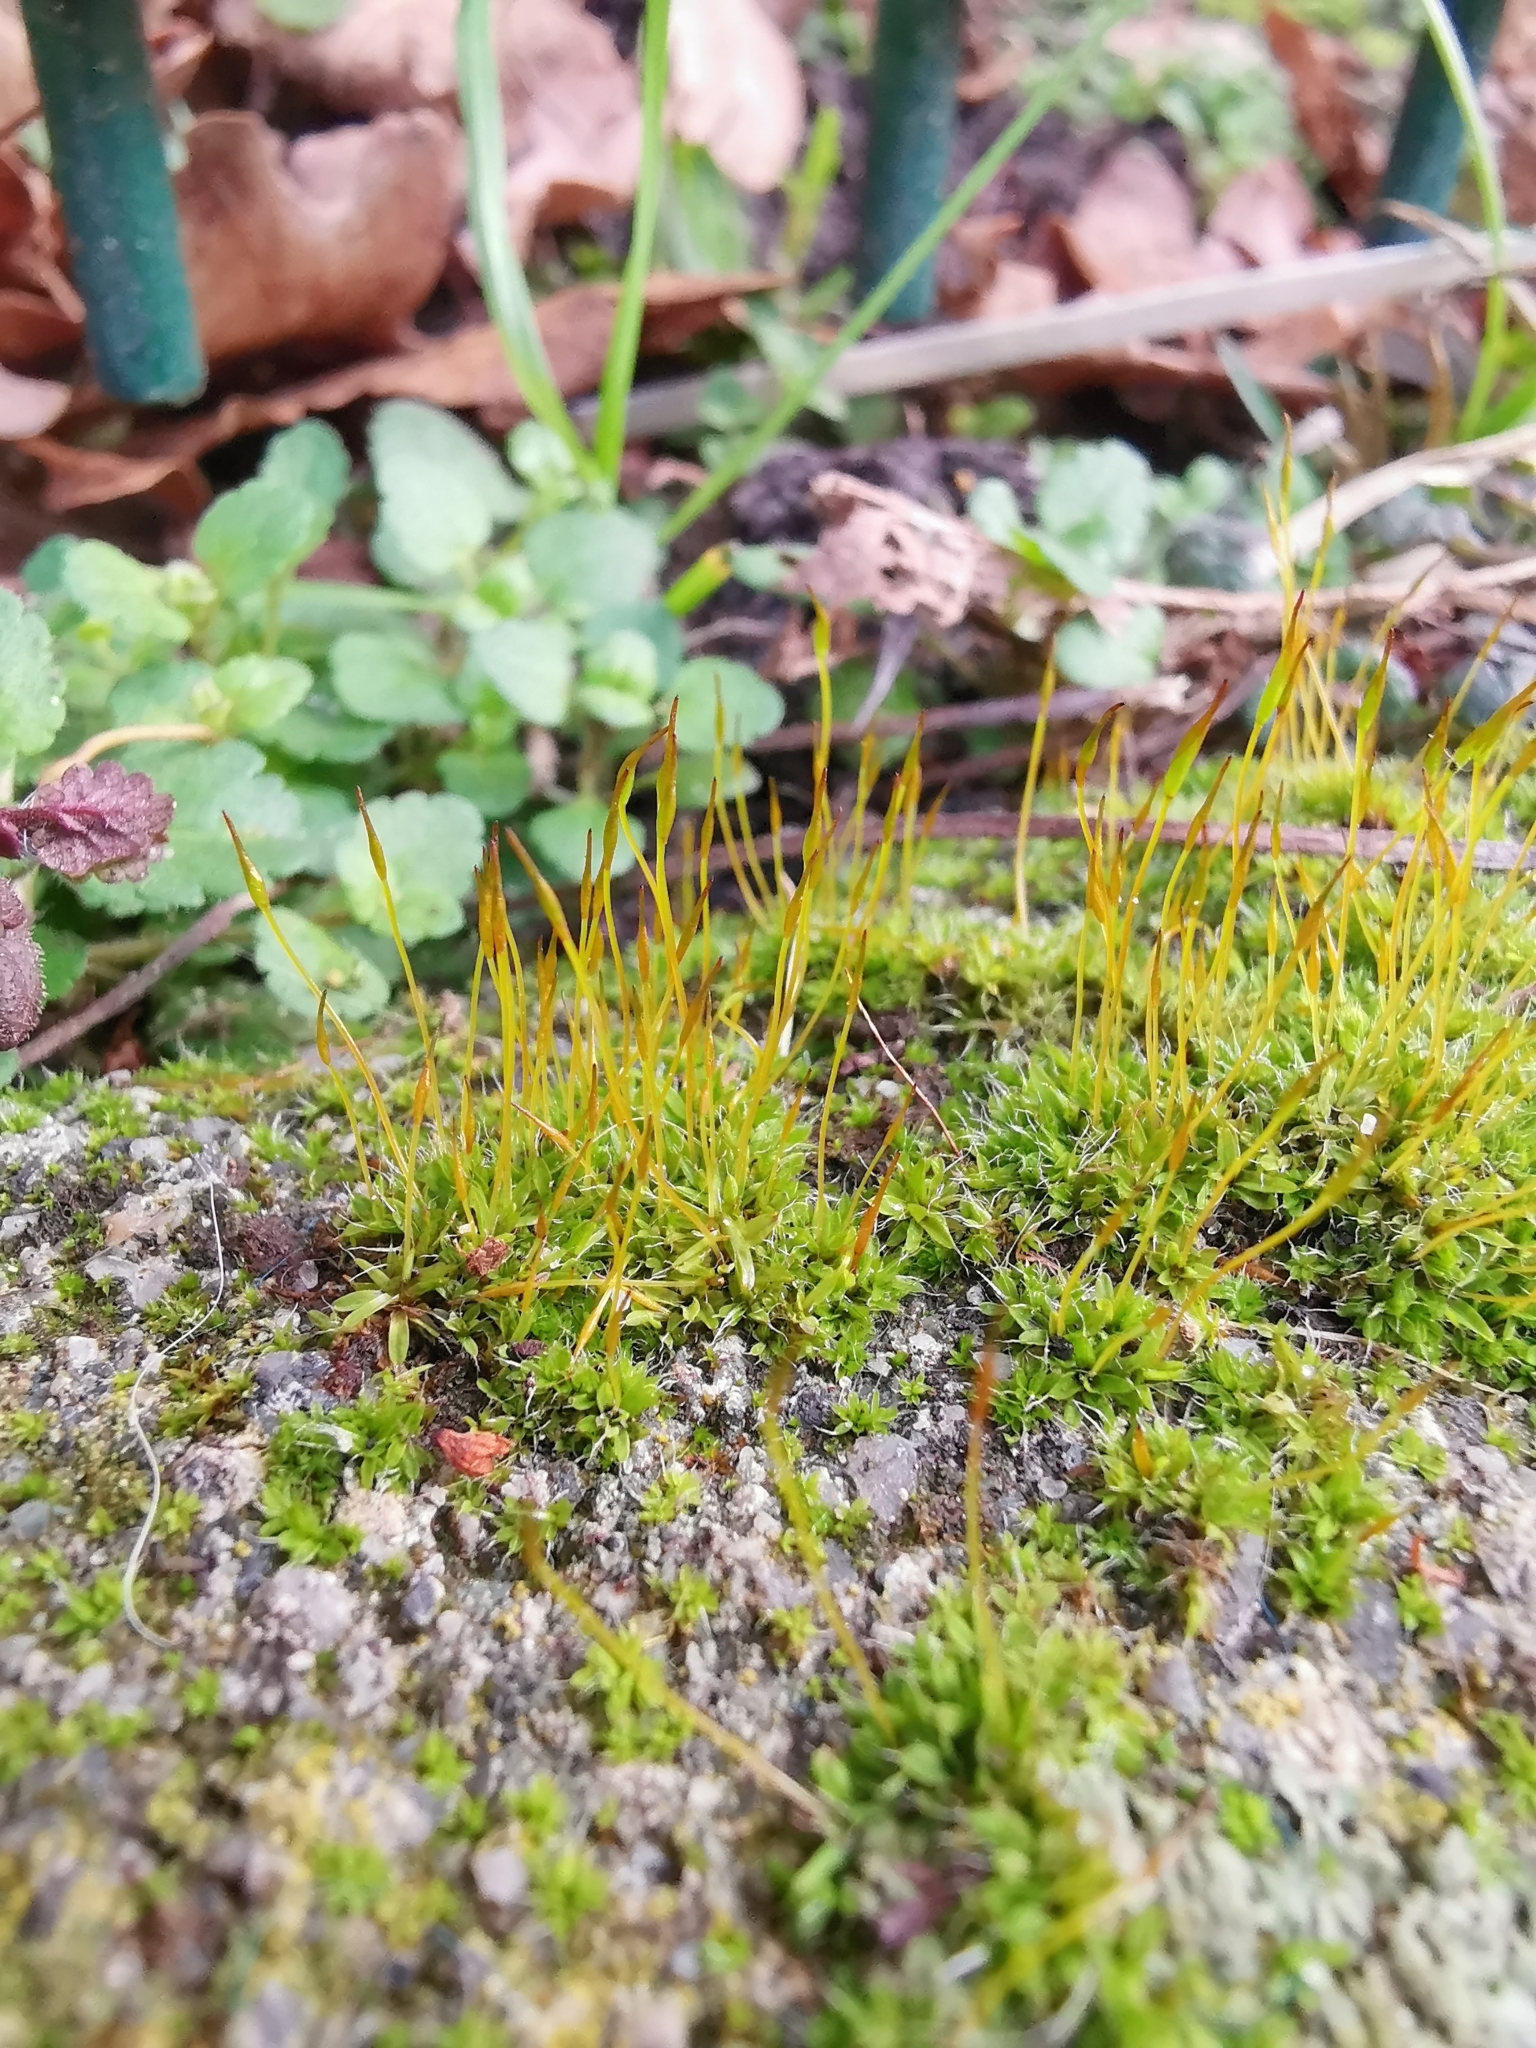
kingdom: Plantae
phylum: Bryophyta
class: Bryopsida
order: Pottiales
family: Pottiaceae
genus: Tortula
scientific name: Tortula muralis
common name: Wall screw-moss
